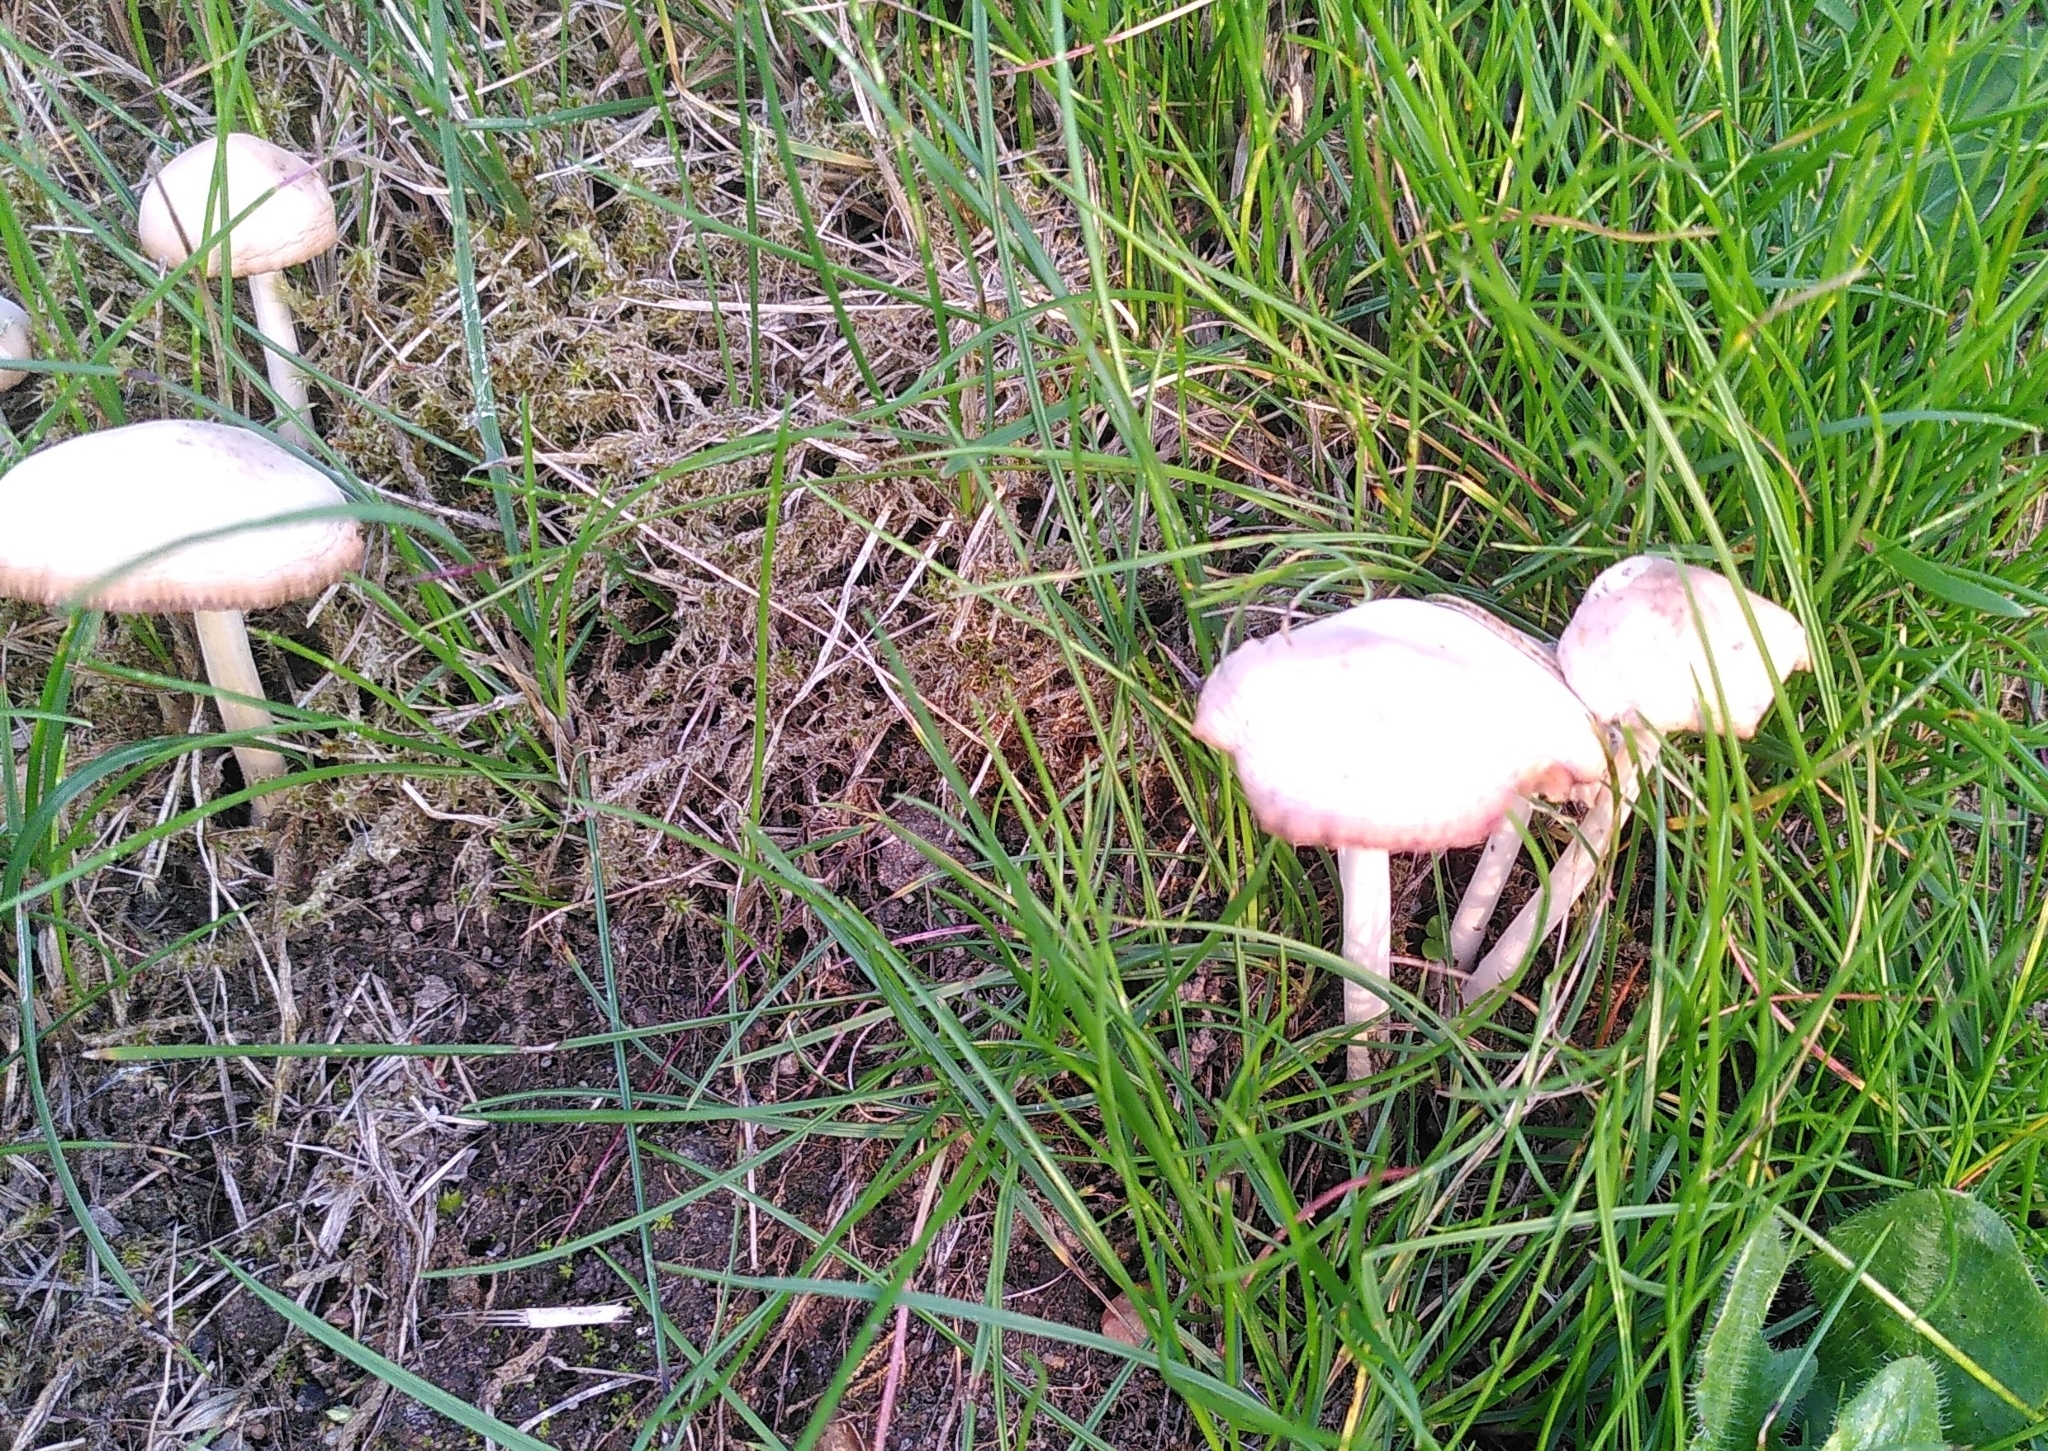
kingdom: Fungi
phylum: Basidiomycota
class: Agaricomycetes
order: Agaricales
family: Marasmiaceae
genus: Marasmius
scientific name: Marasmius oreades
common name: Fairy ring champignon
